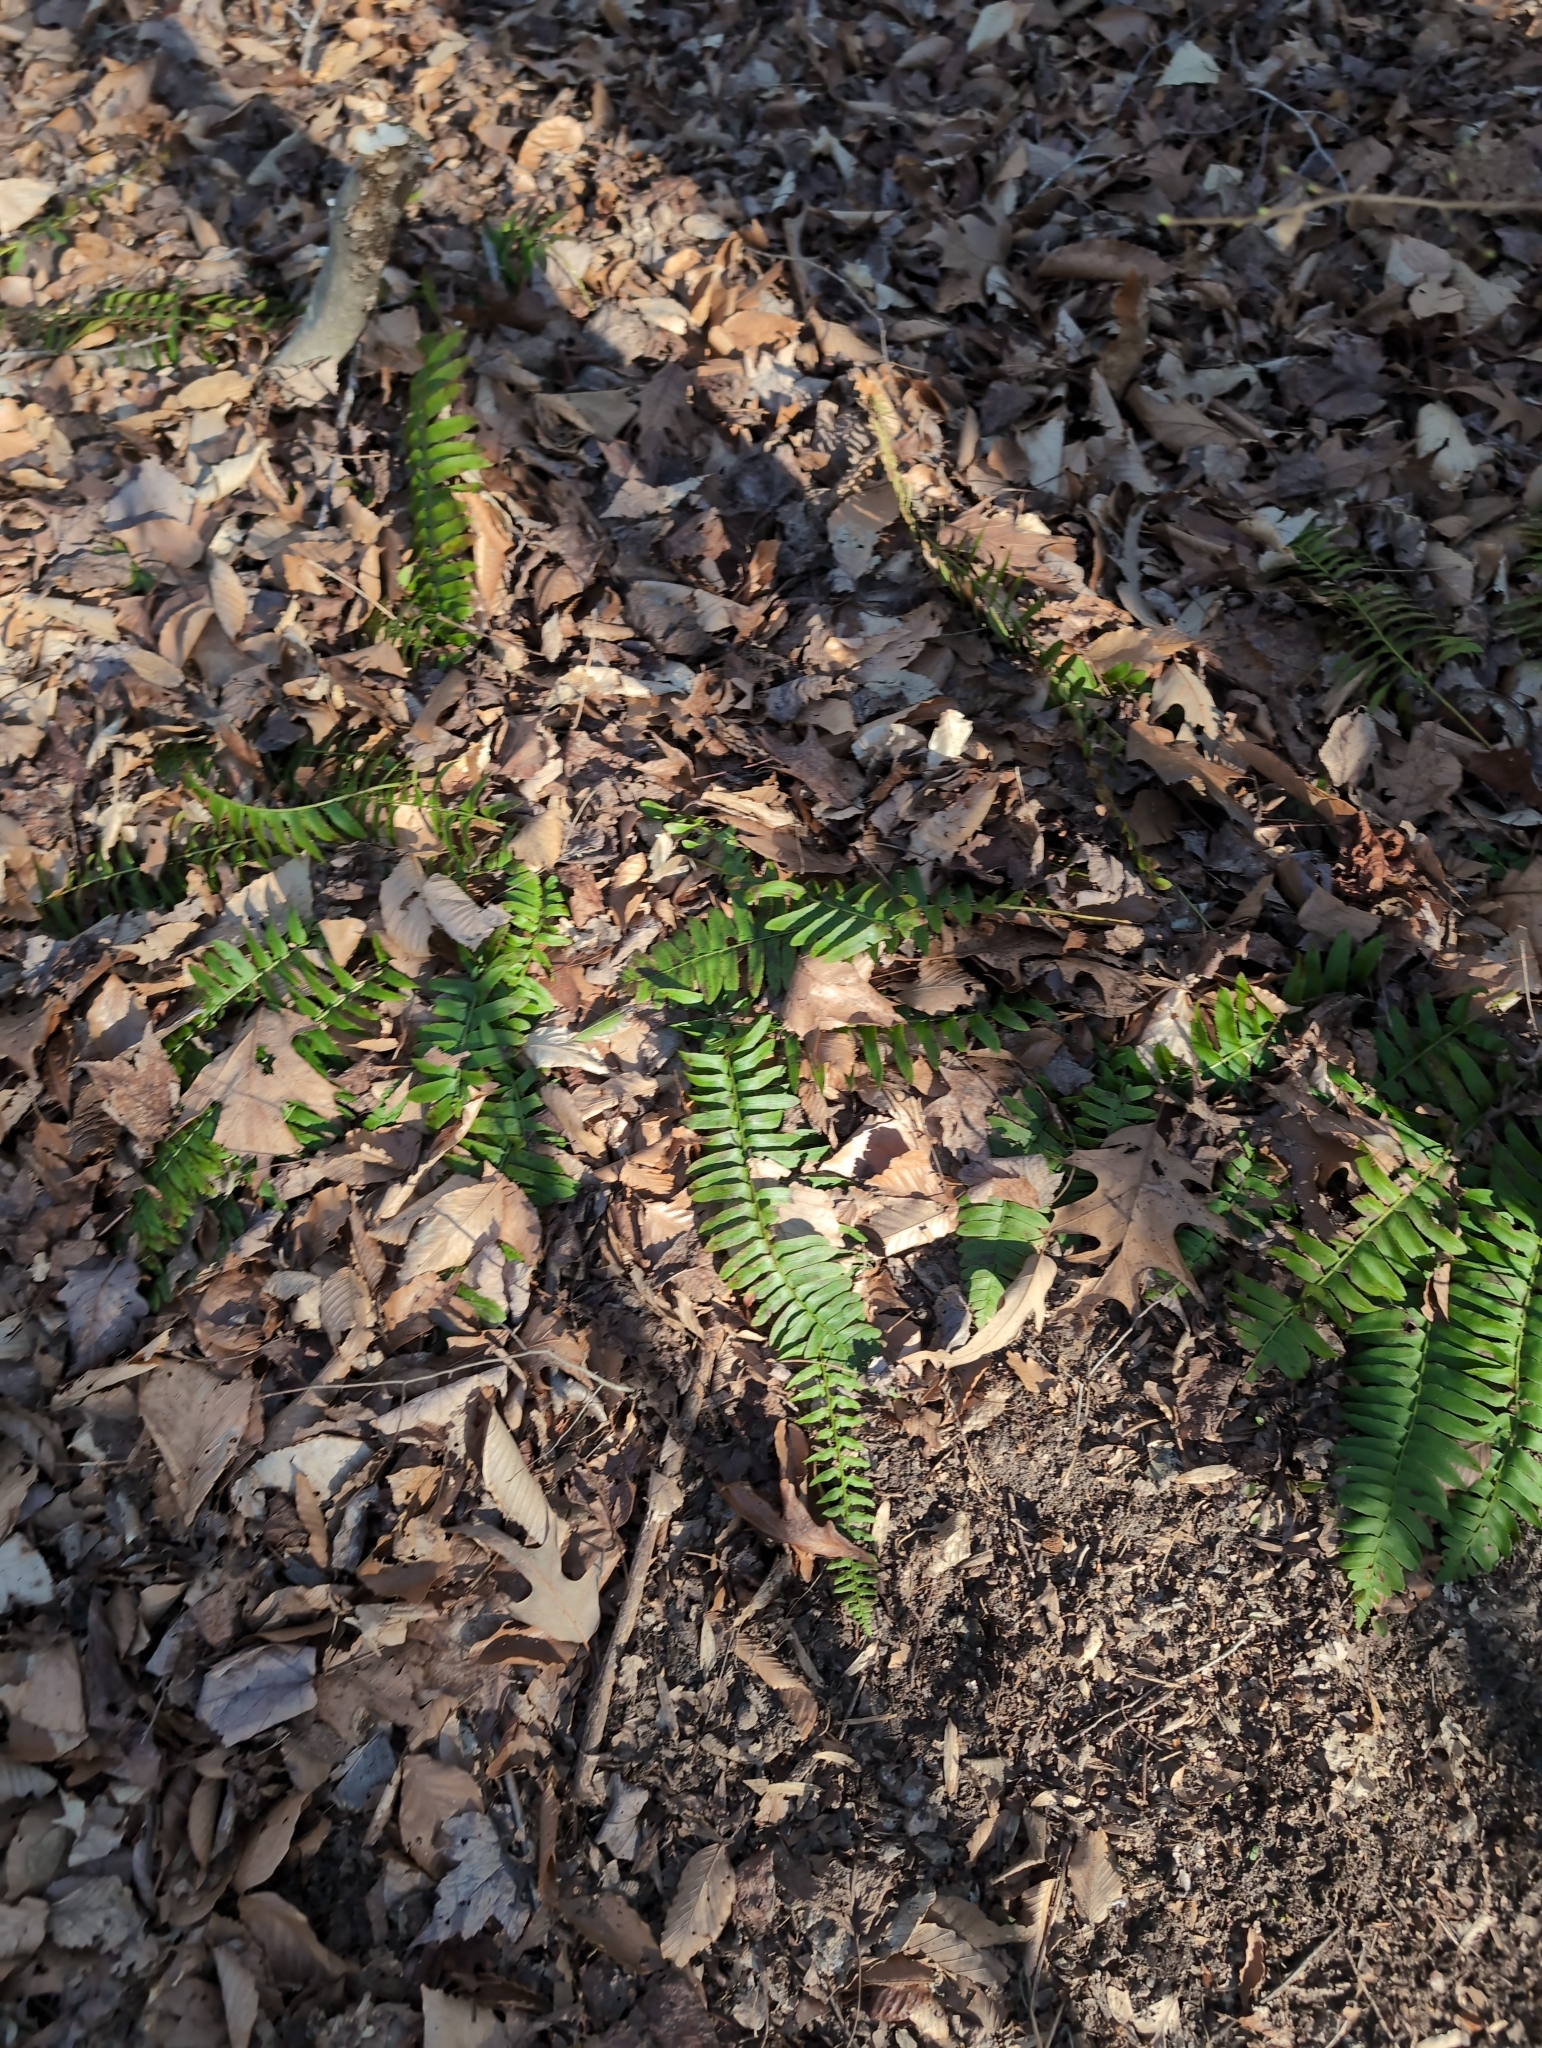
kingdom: Plantae
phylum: Tracheophyta
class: Polypodiopsida
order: Polypodiales
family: Dryopteridaceae
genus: Polystichum
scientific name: Polystichum acrostichoides
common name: Christmas fern
